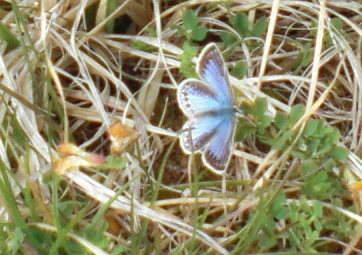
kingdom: Animalia
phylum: Arthropoda
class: Insecta
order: Lepidoptera
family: Lycaenidae
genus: Polyommatus
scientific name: Polyommatus icarus
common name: Common blue
